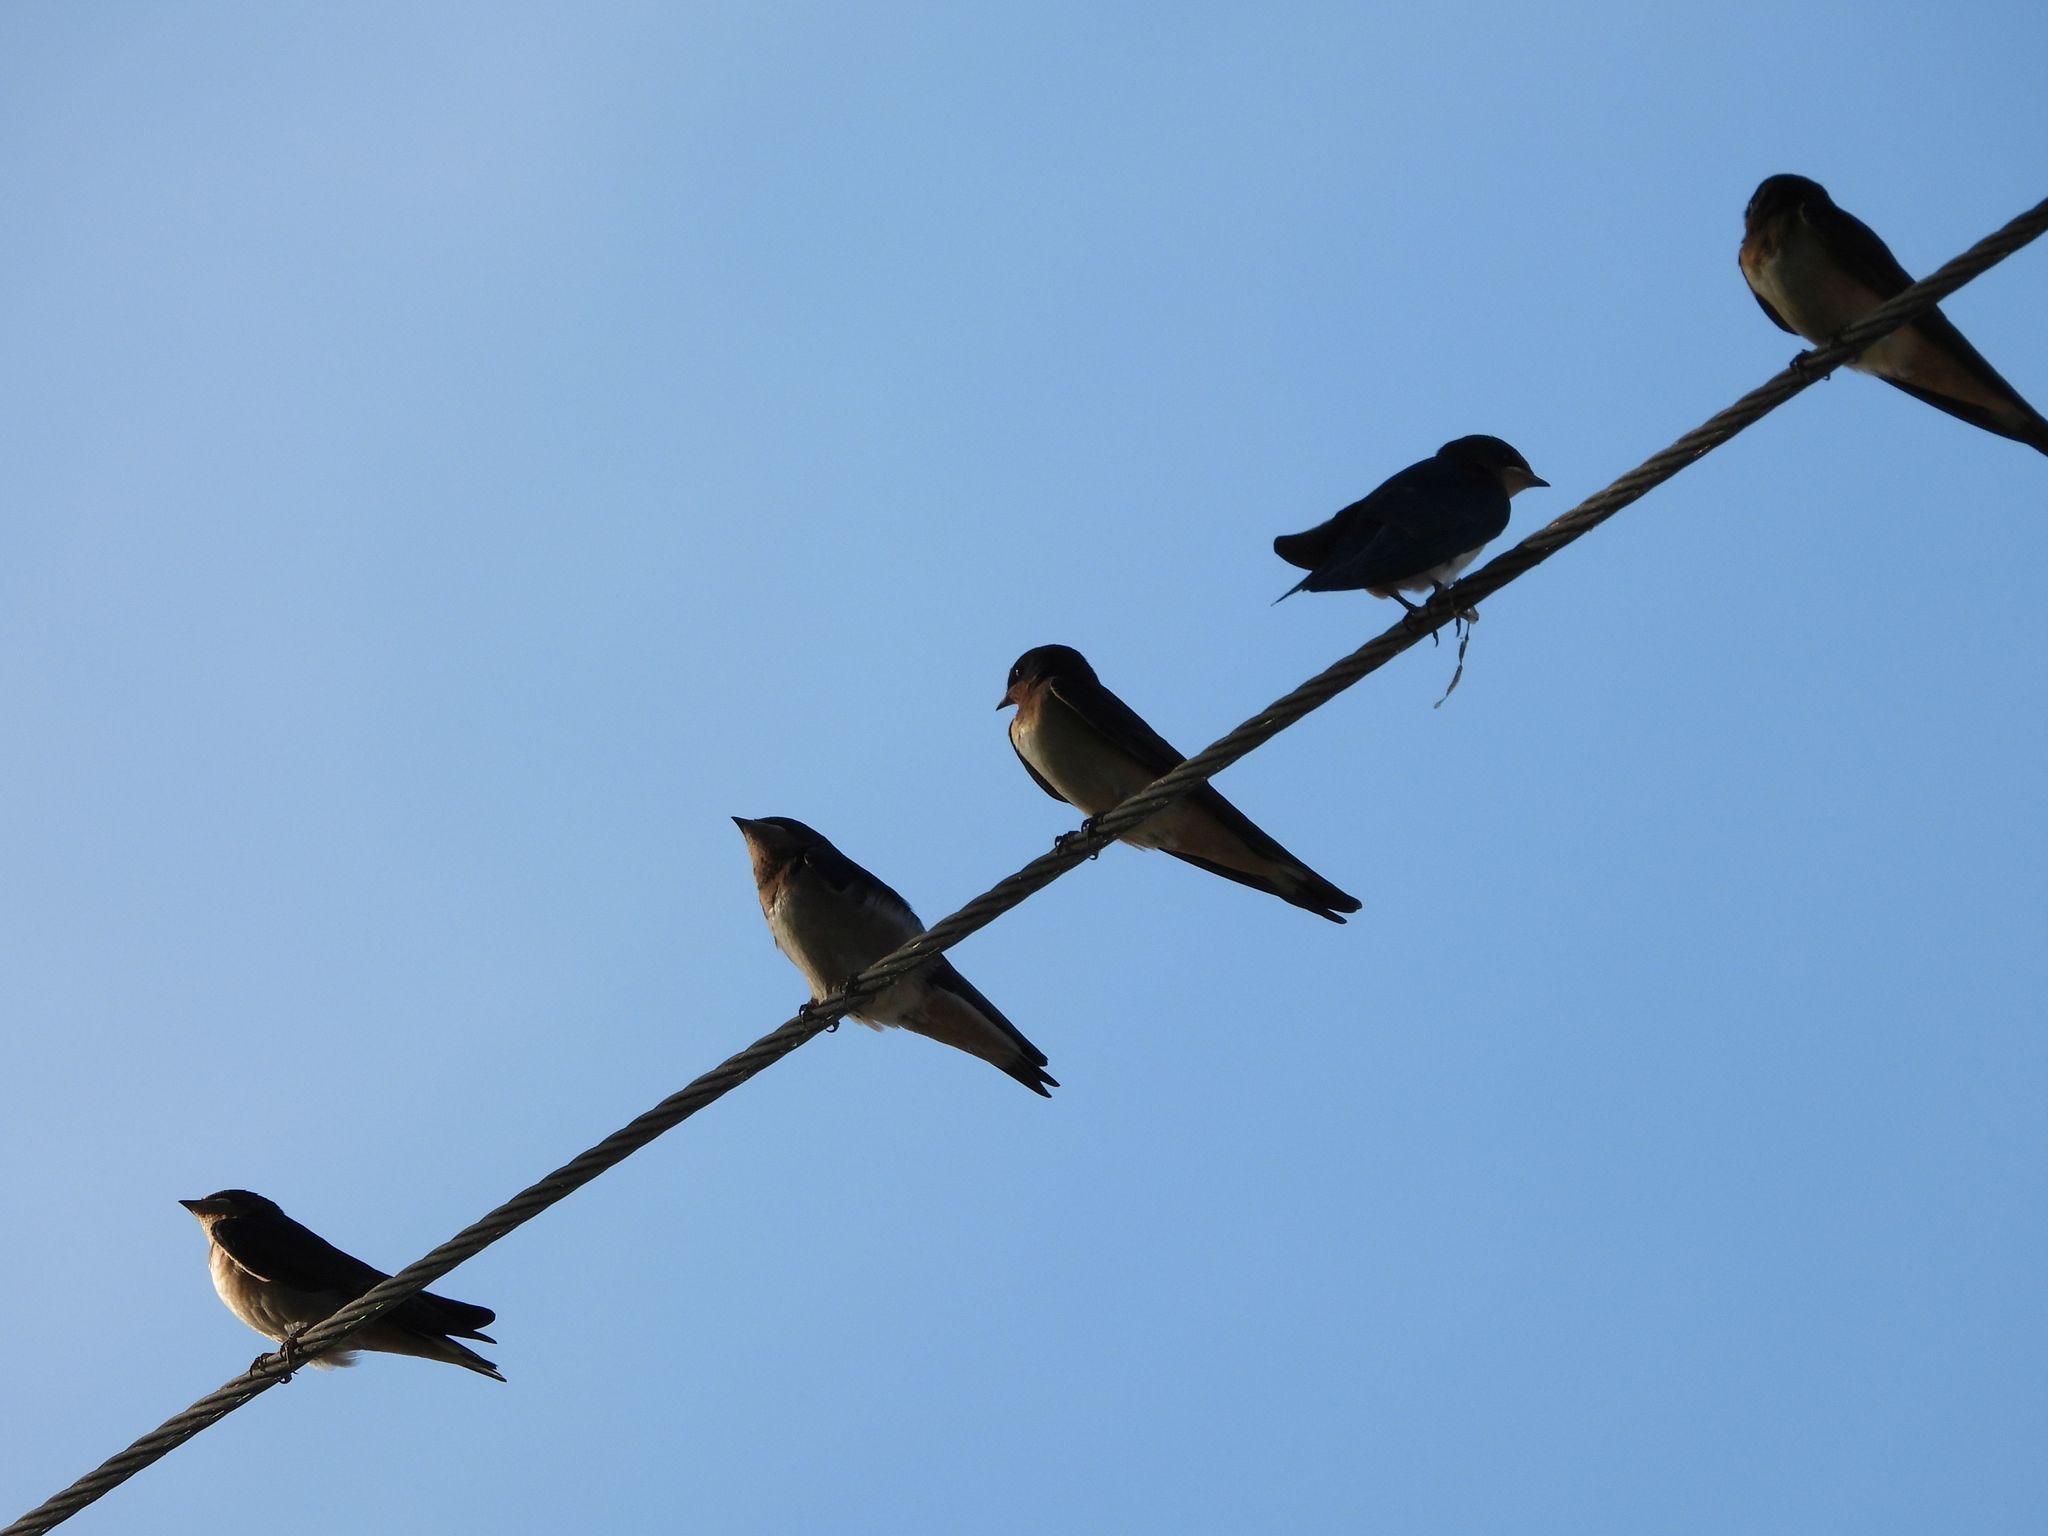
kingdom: Animalia
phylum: Chordata
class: Aves
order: Passeriformes
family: Hirundinidae
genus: Hirundo
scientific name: Hirundo rustica
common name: Barn swallow
